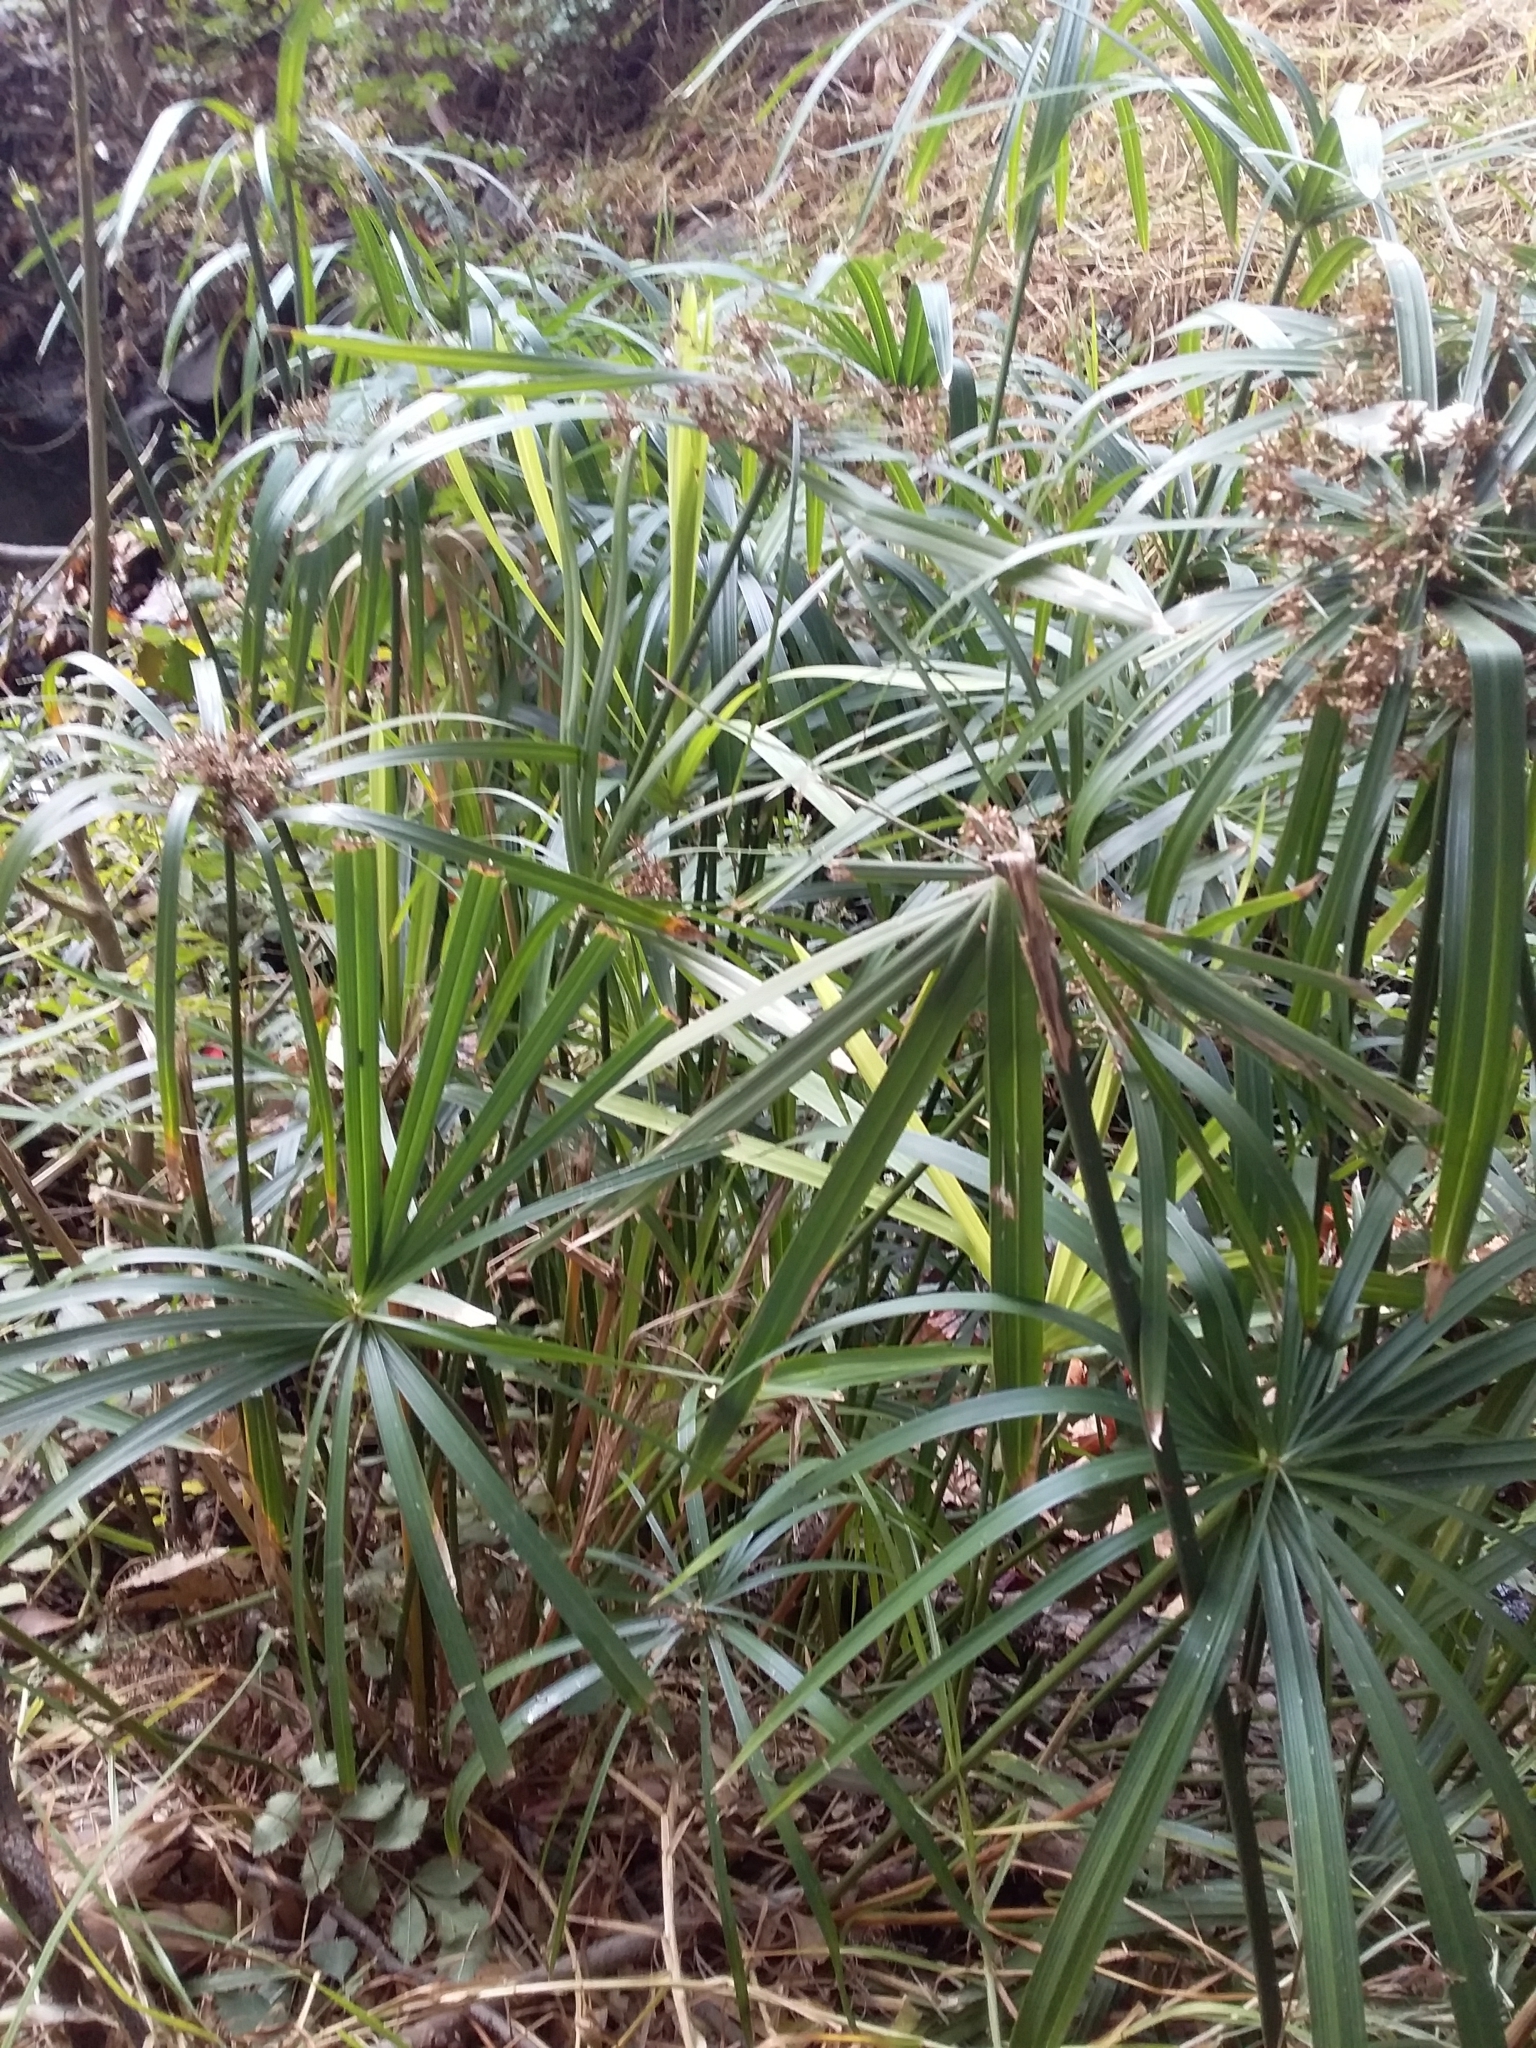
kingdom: Plantae
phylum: Tracheophyta
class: Liliopsida
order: Poales
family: Cyperaceae
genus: Cyperus
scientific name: Cyperus alternifolius
